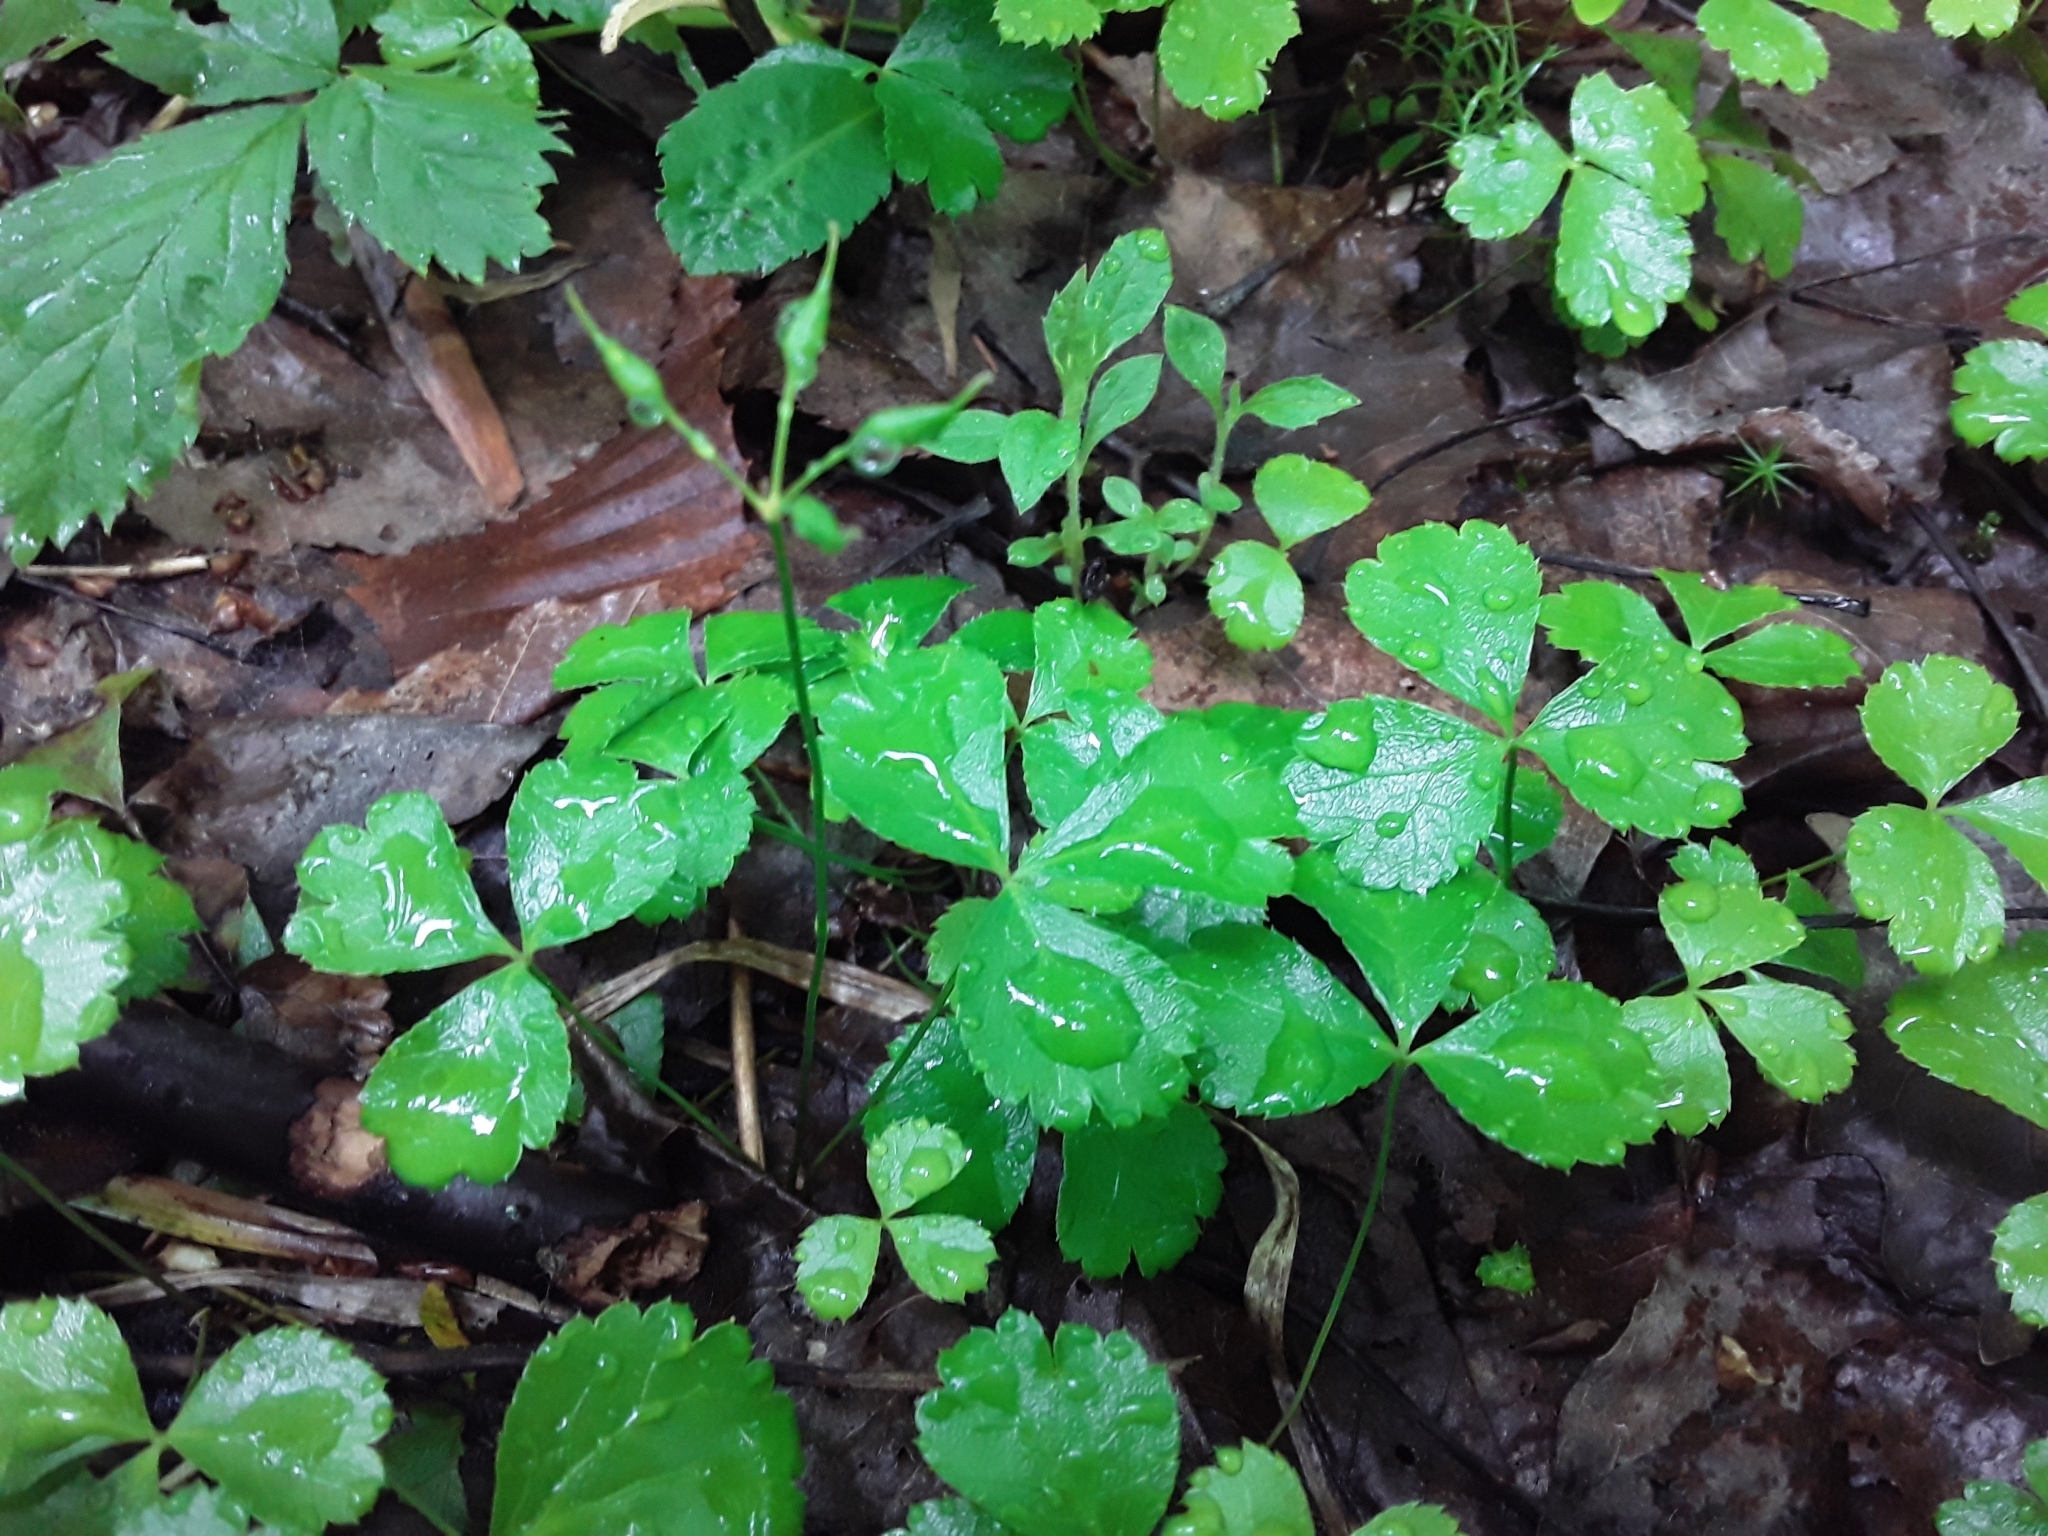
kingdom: Plantae
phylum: Tracheophyta
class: Magnoliopsida
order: Ranunculales
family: Ranunculaceae
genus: Coptis
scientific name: Coptis trifolia
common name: Canker-root
